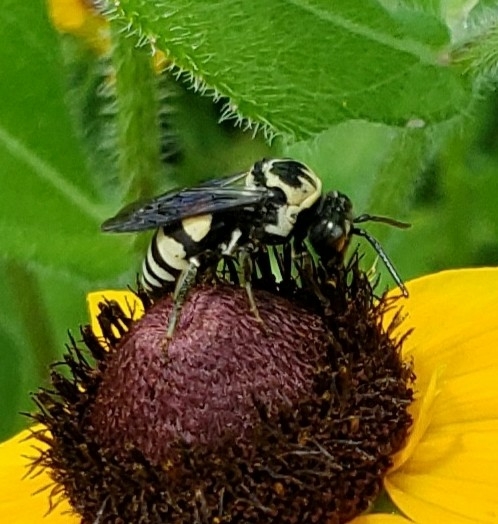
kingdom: Animalia
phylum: Arthropoda
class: Insecta
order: Hymenoptera
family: Apidae
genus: Triepeolus
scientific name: Triepeolus remigatus
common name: Squash longhorn-cuckoo
